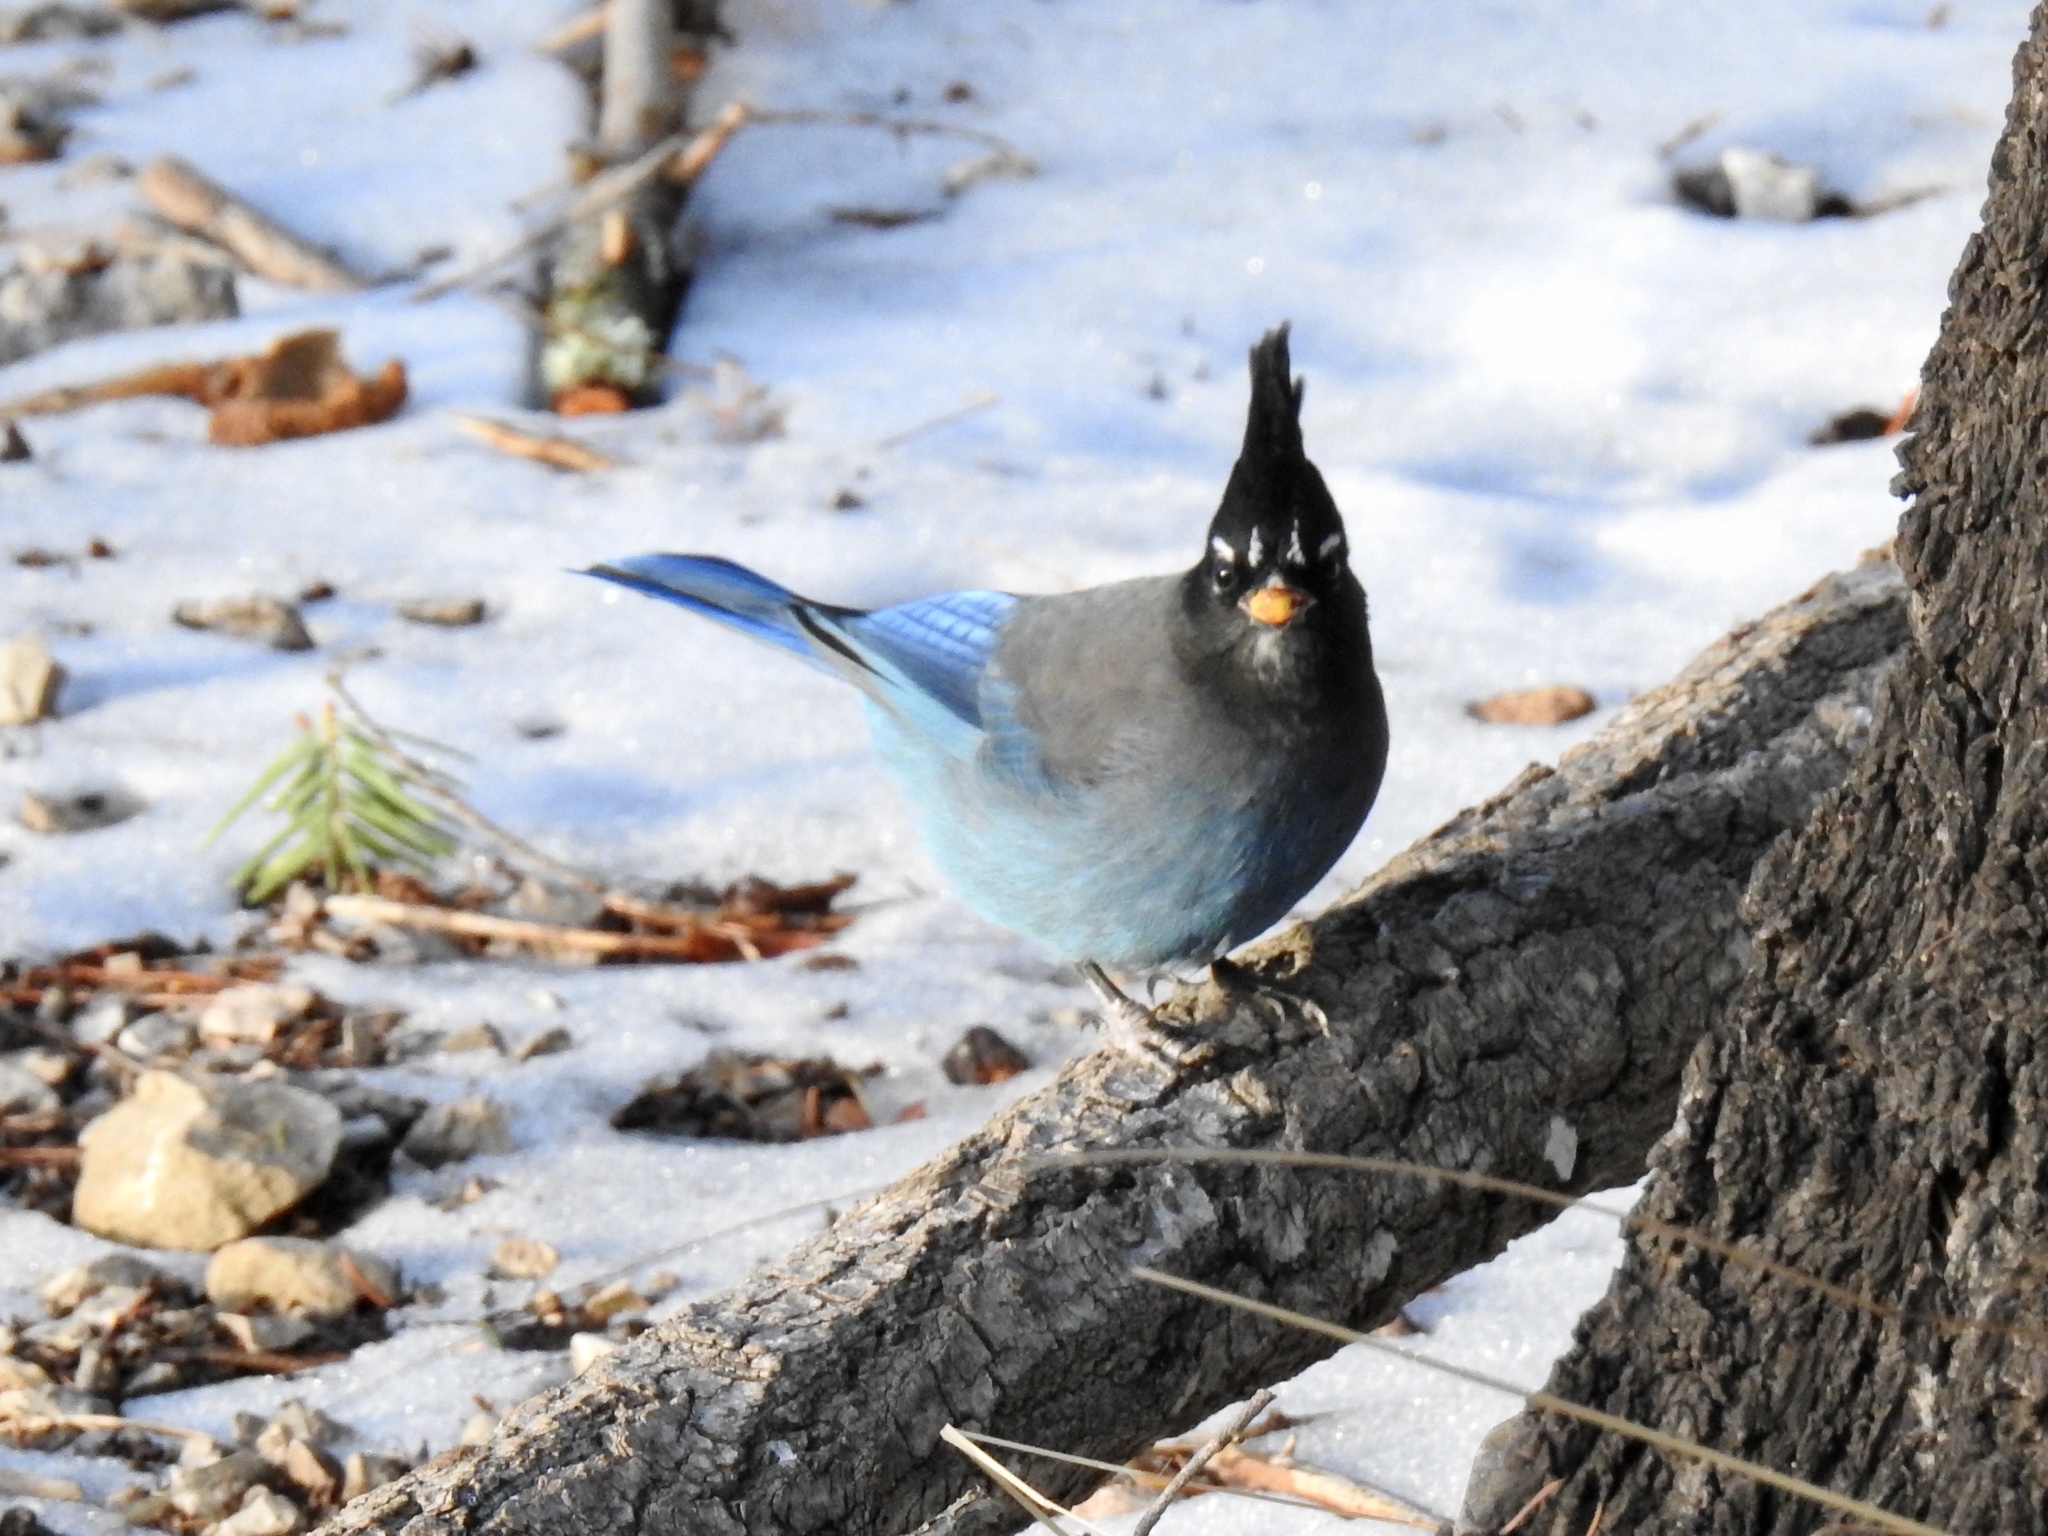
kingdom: Animalia
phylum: Chordata
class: Aves
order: Passeriformes
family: Corvidae
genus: Cyanocitta
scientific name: Cyanocitta stelleri
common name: Steller's jay
